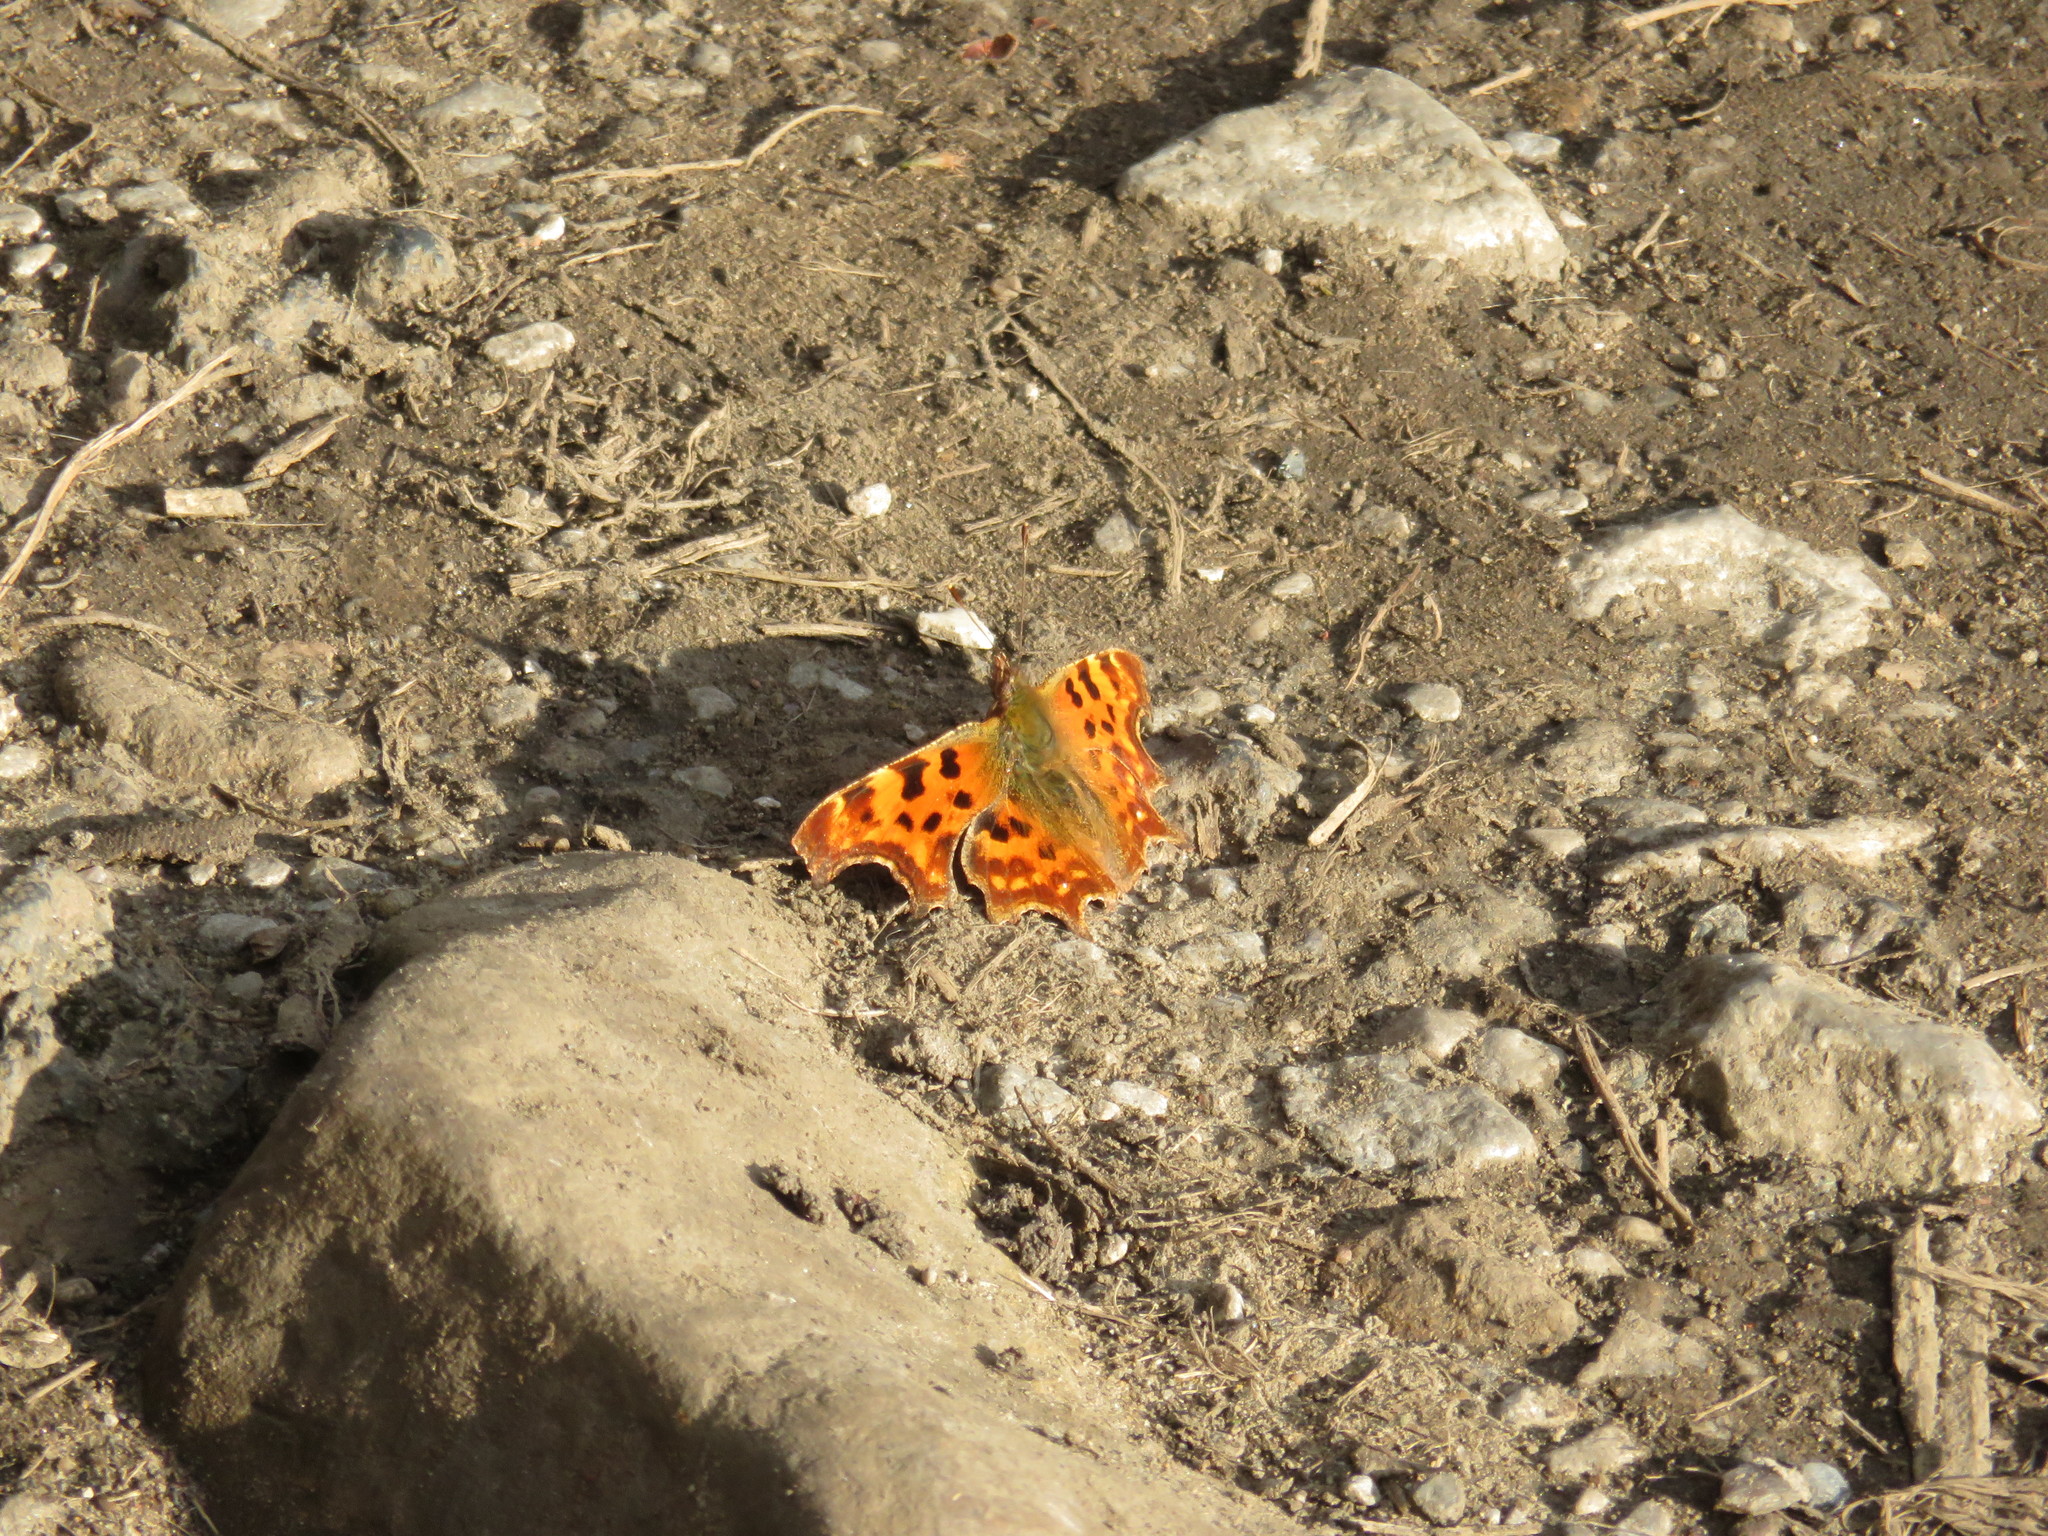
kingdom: Animalia
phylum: Arthropoda
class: Insecta
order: Lepidoptera
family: Nymphalidae
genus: Polygonia
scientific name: Polygonia c-album
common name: Comma
